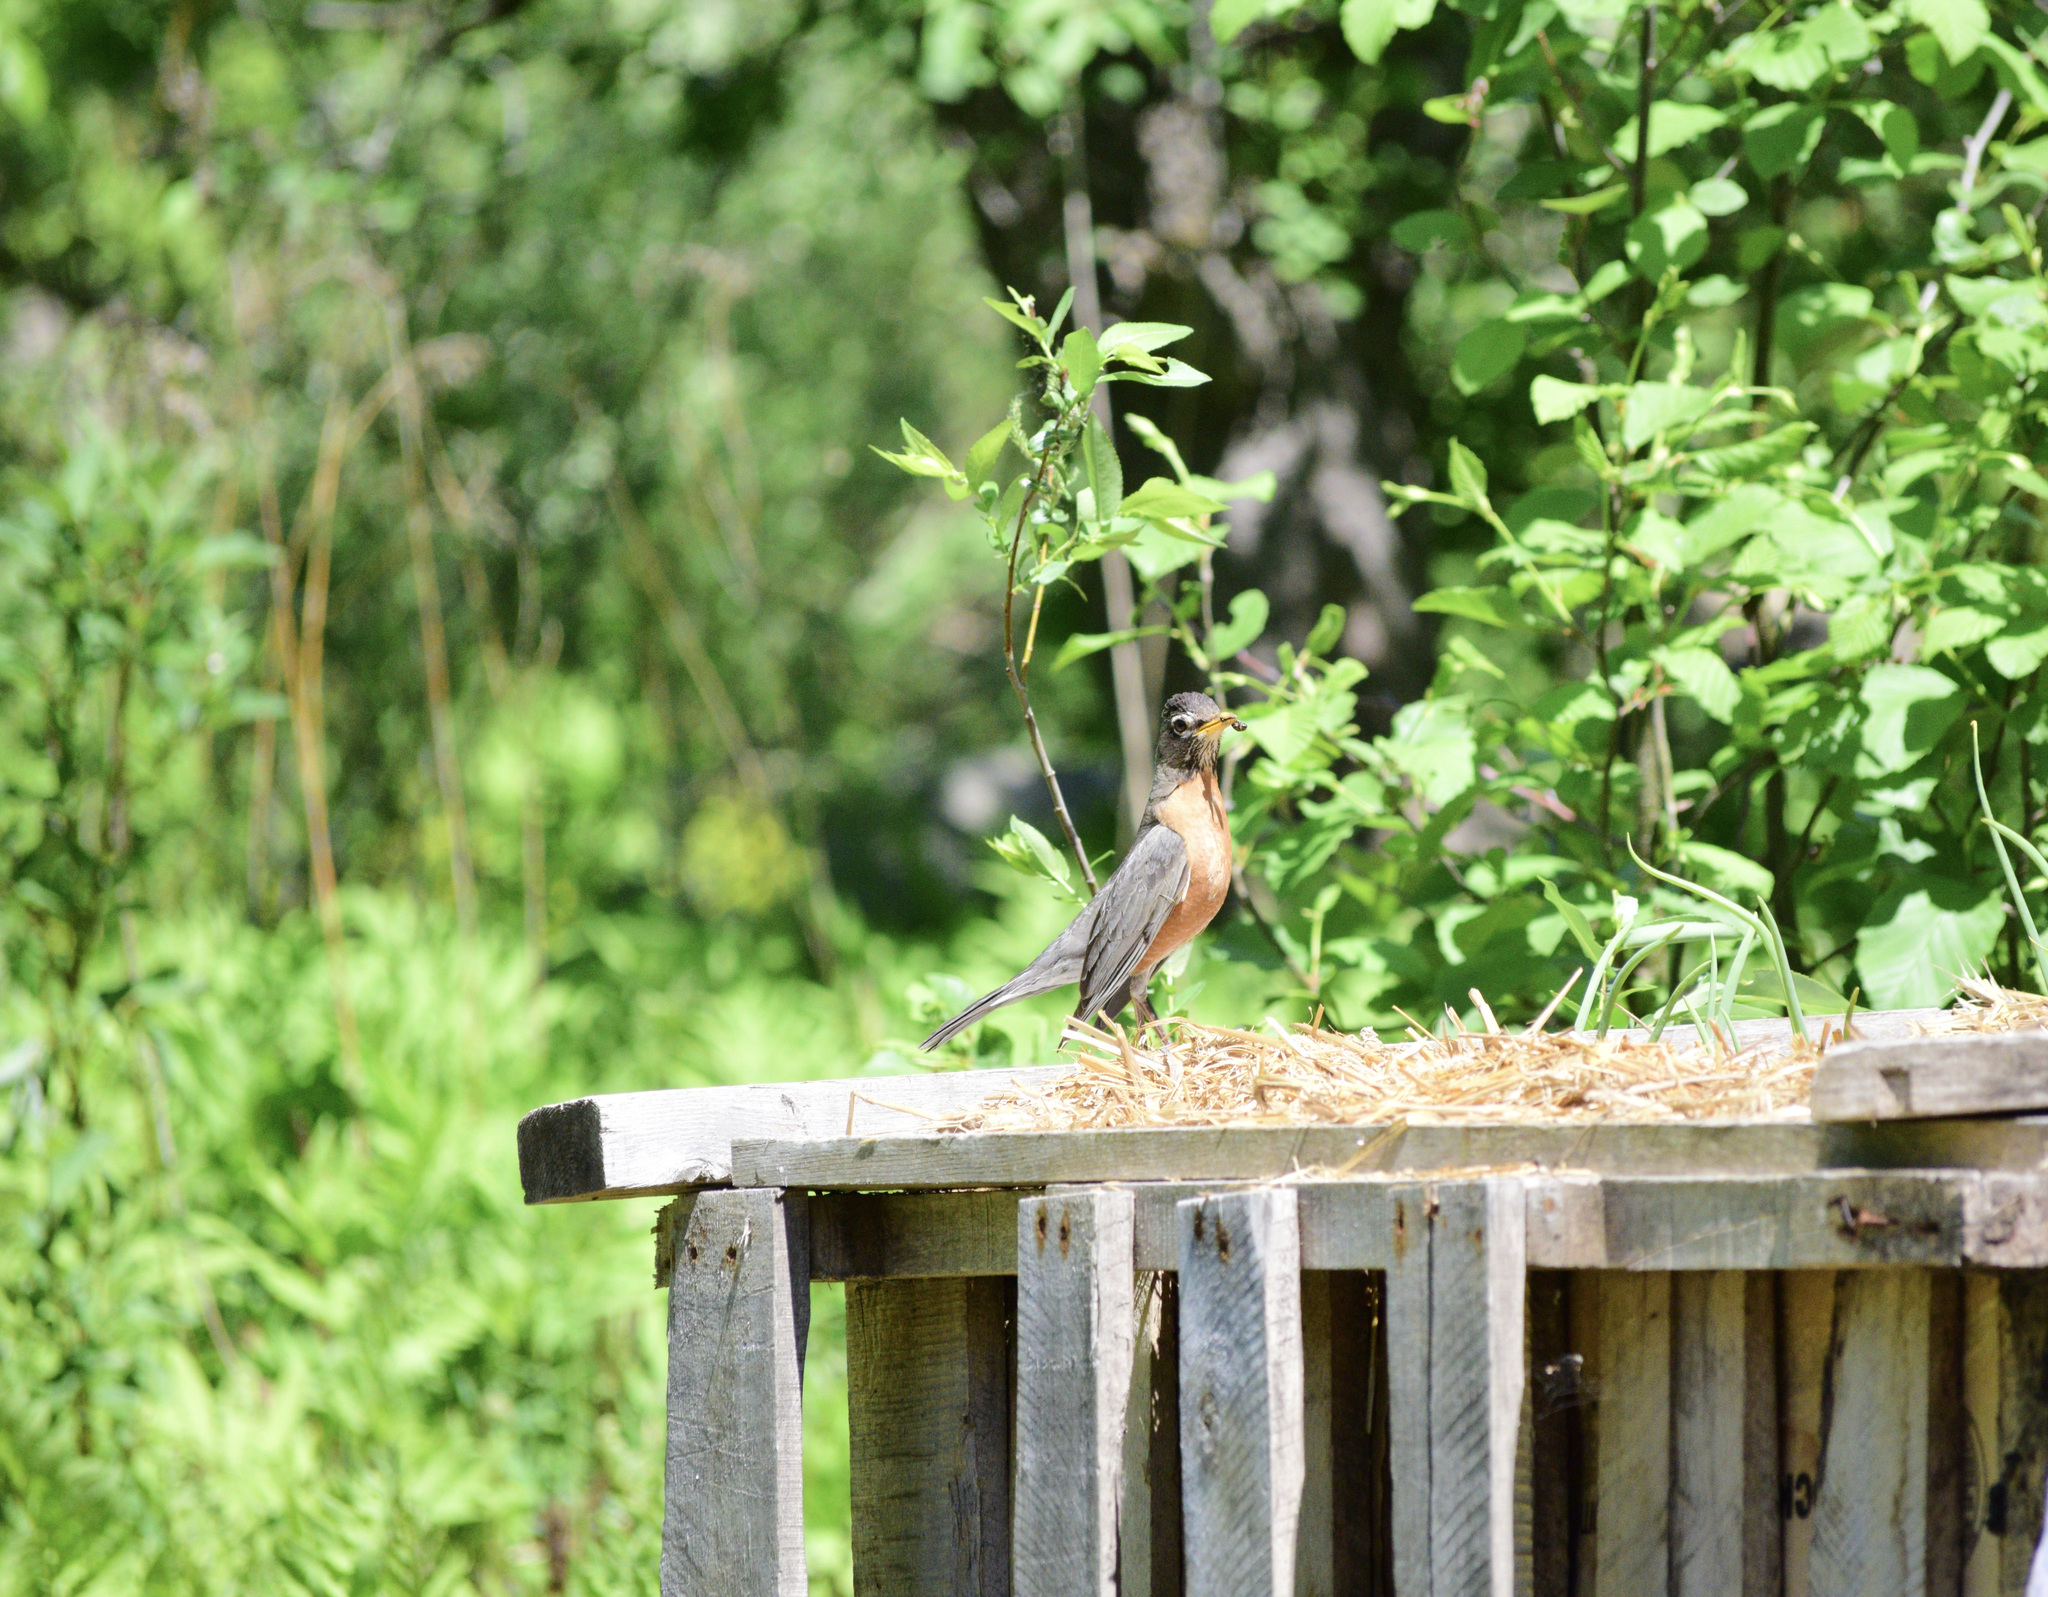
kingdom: Animalia
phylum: Chordata
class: Aves
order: Passeriformes
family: Turdidae
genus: Turdus
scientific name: Turdus migratorius
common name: American robin
